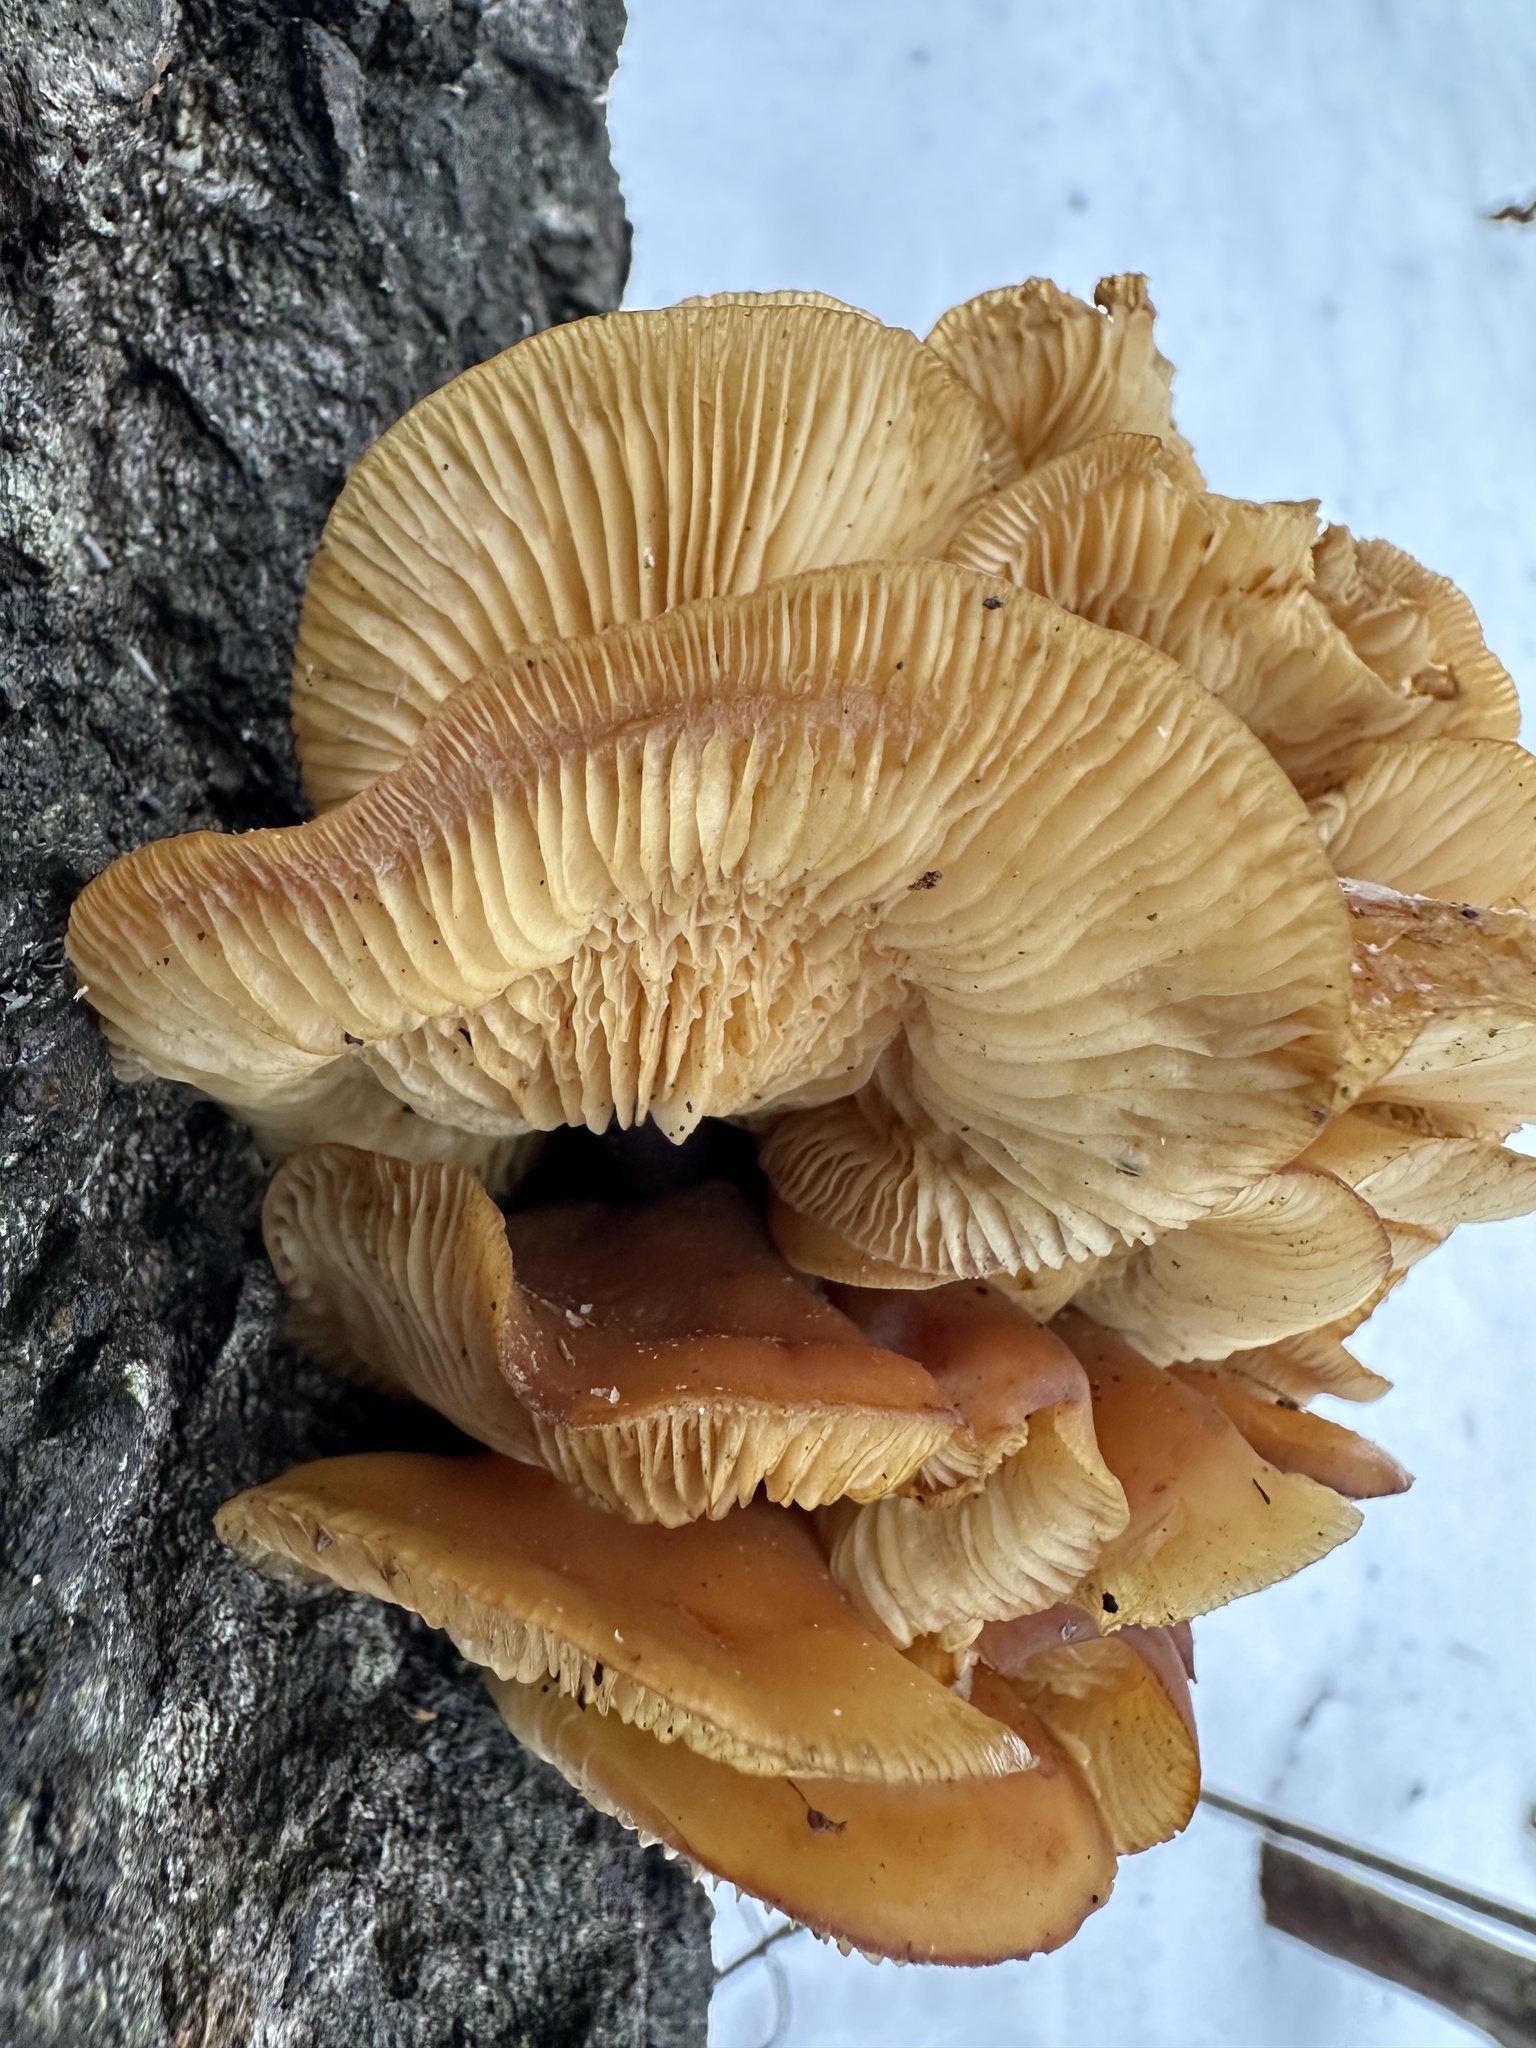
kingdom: Fungi
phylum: Basidiomycota
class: Agaricomycetes
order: Agaricales
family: Physalacriaceae
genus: Flammulina
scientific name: Flammulina
